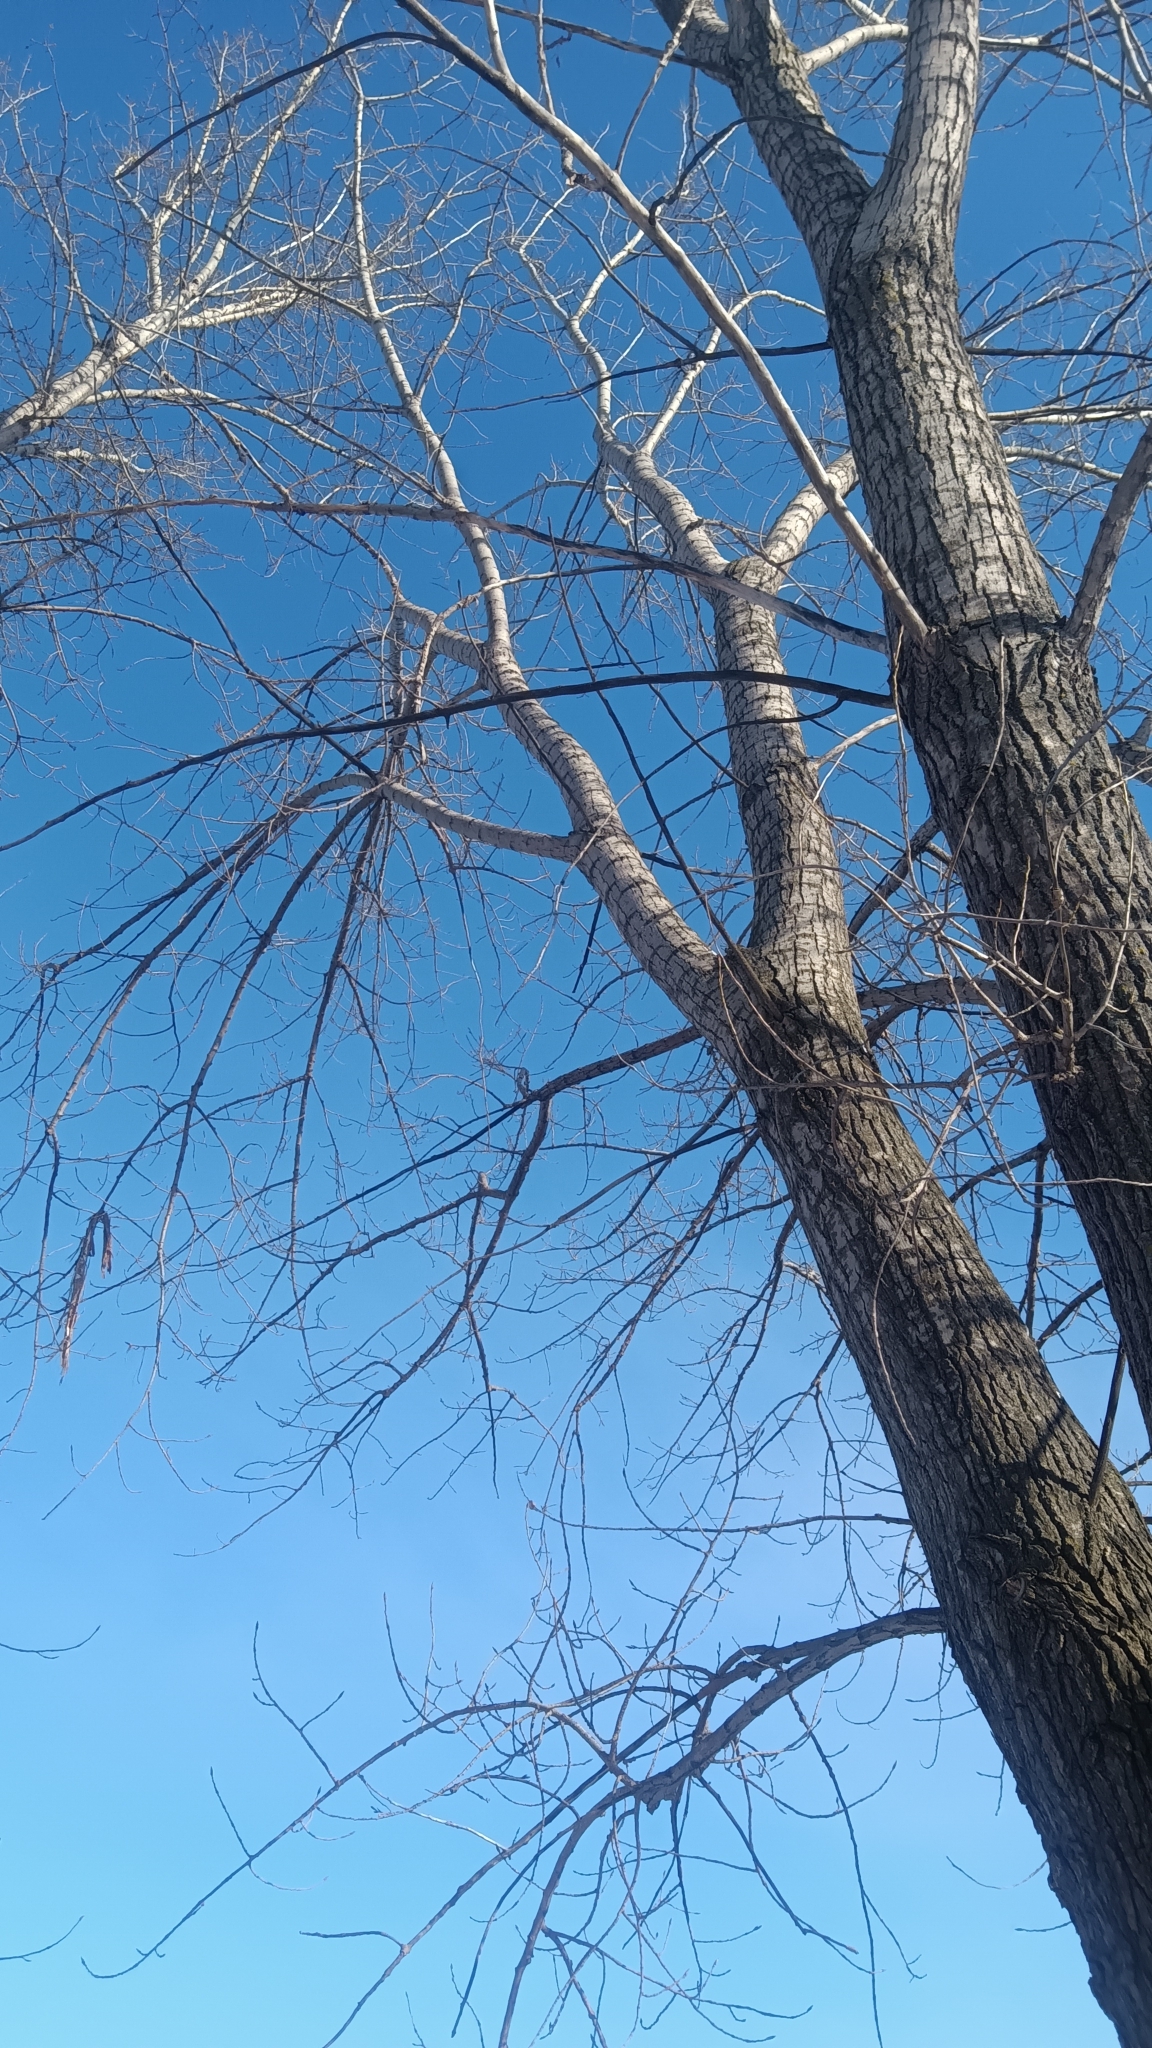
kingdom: Plantae
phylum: Tracheophyta
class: Magnoliopsida
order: Malpighiales
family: Salicaceae
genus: Populus
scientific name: Populus deltoides
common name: Eastern cottonwood
